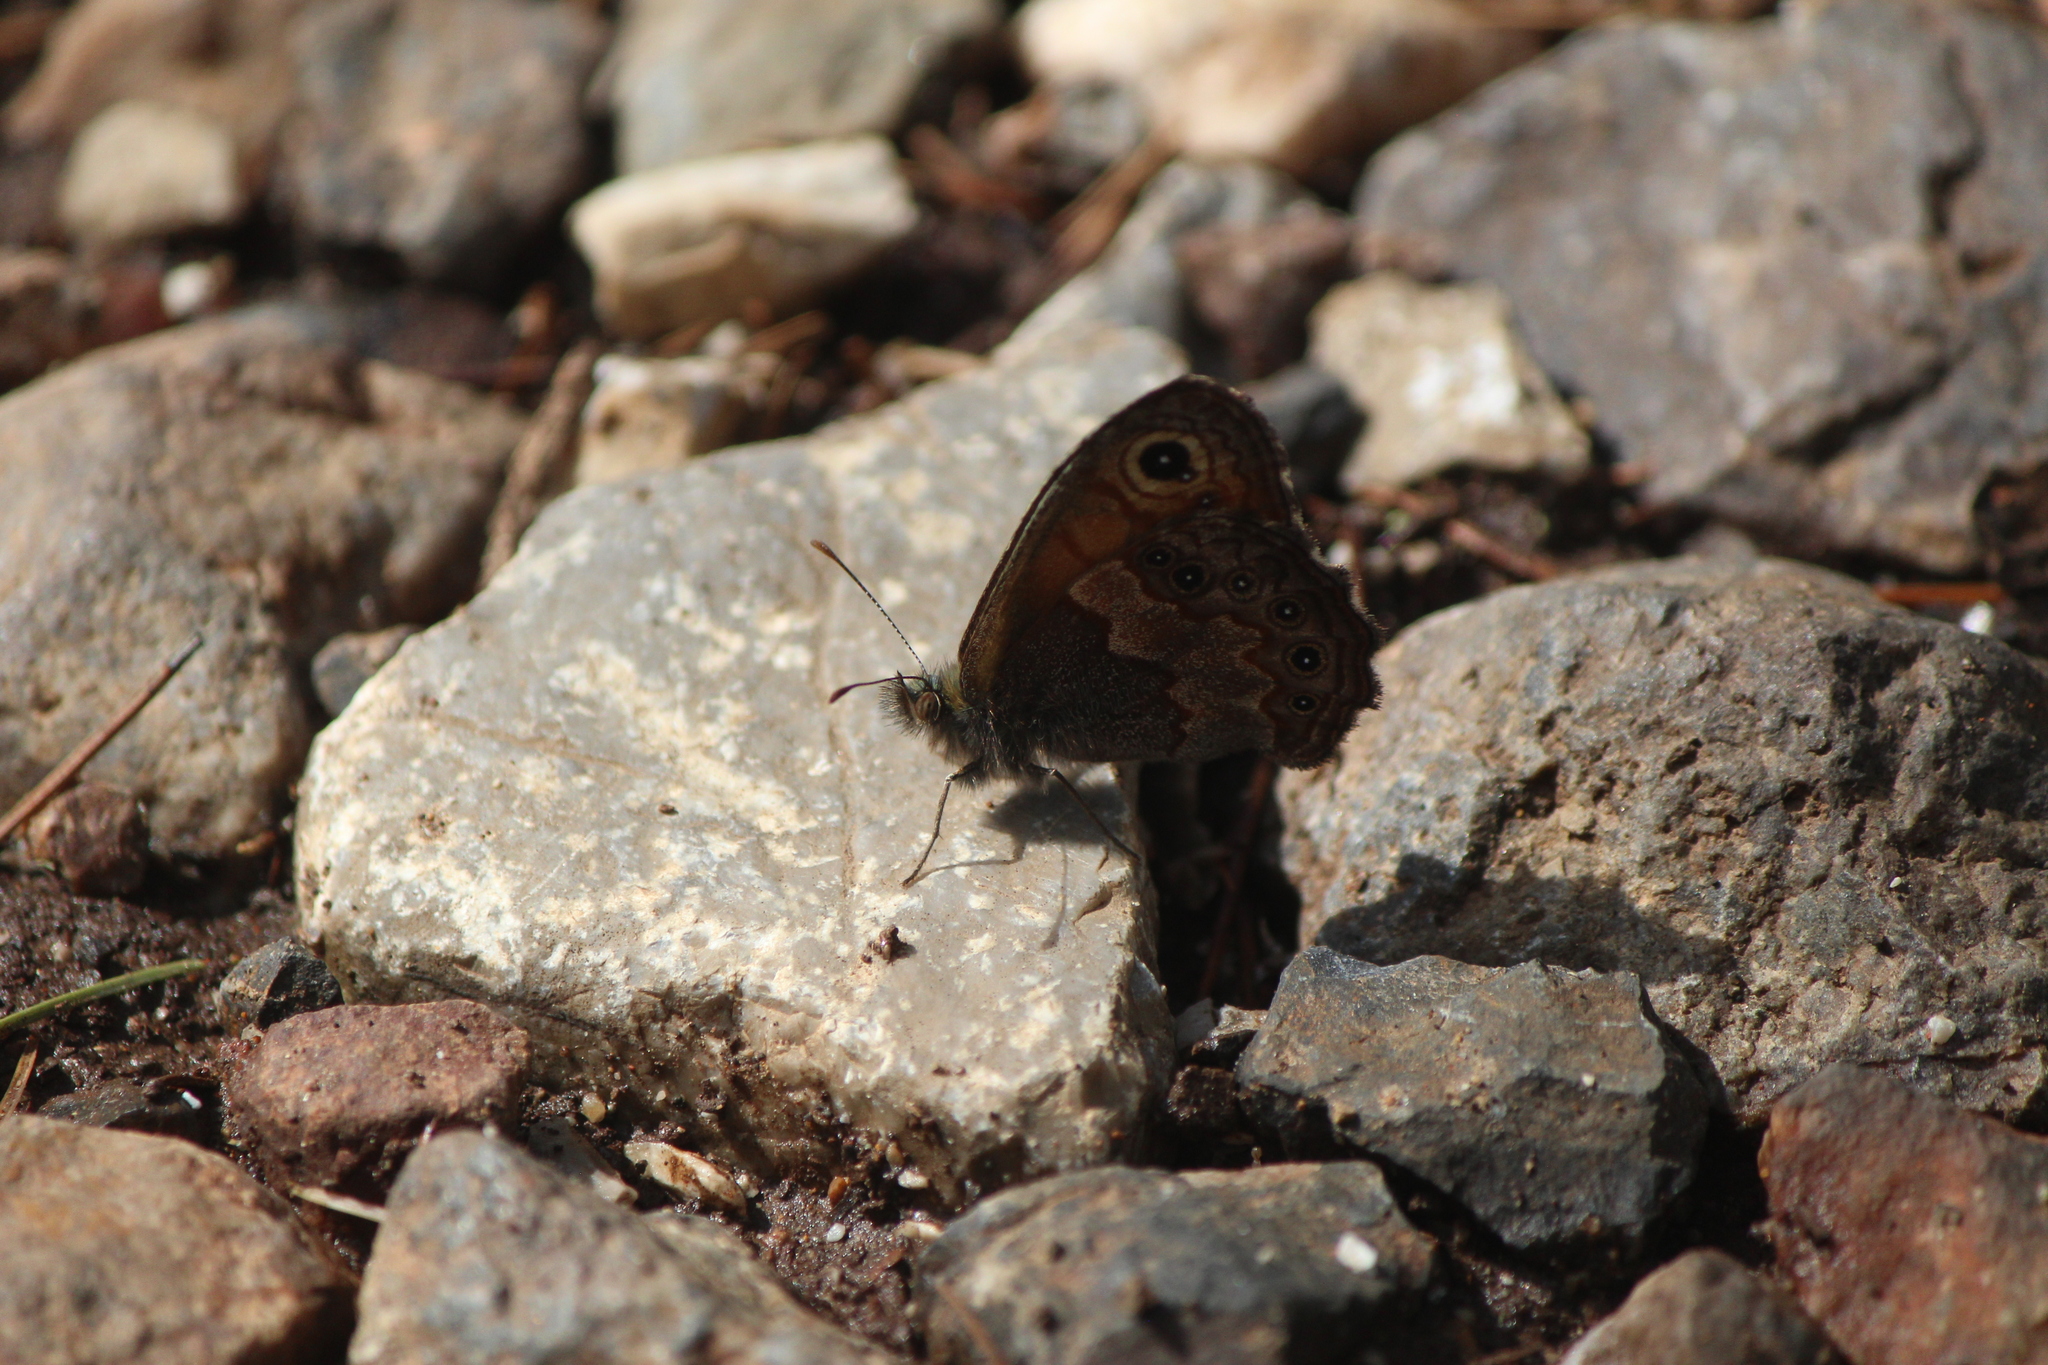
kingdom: Animalia
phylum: Arthropoda
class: Insecta
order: Lepidoptera
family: Nymphalidae
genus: Paramecera
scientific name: Paramecera xicaque
